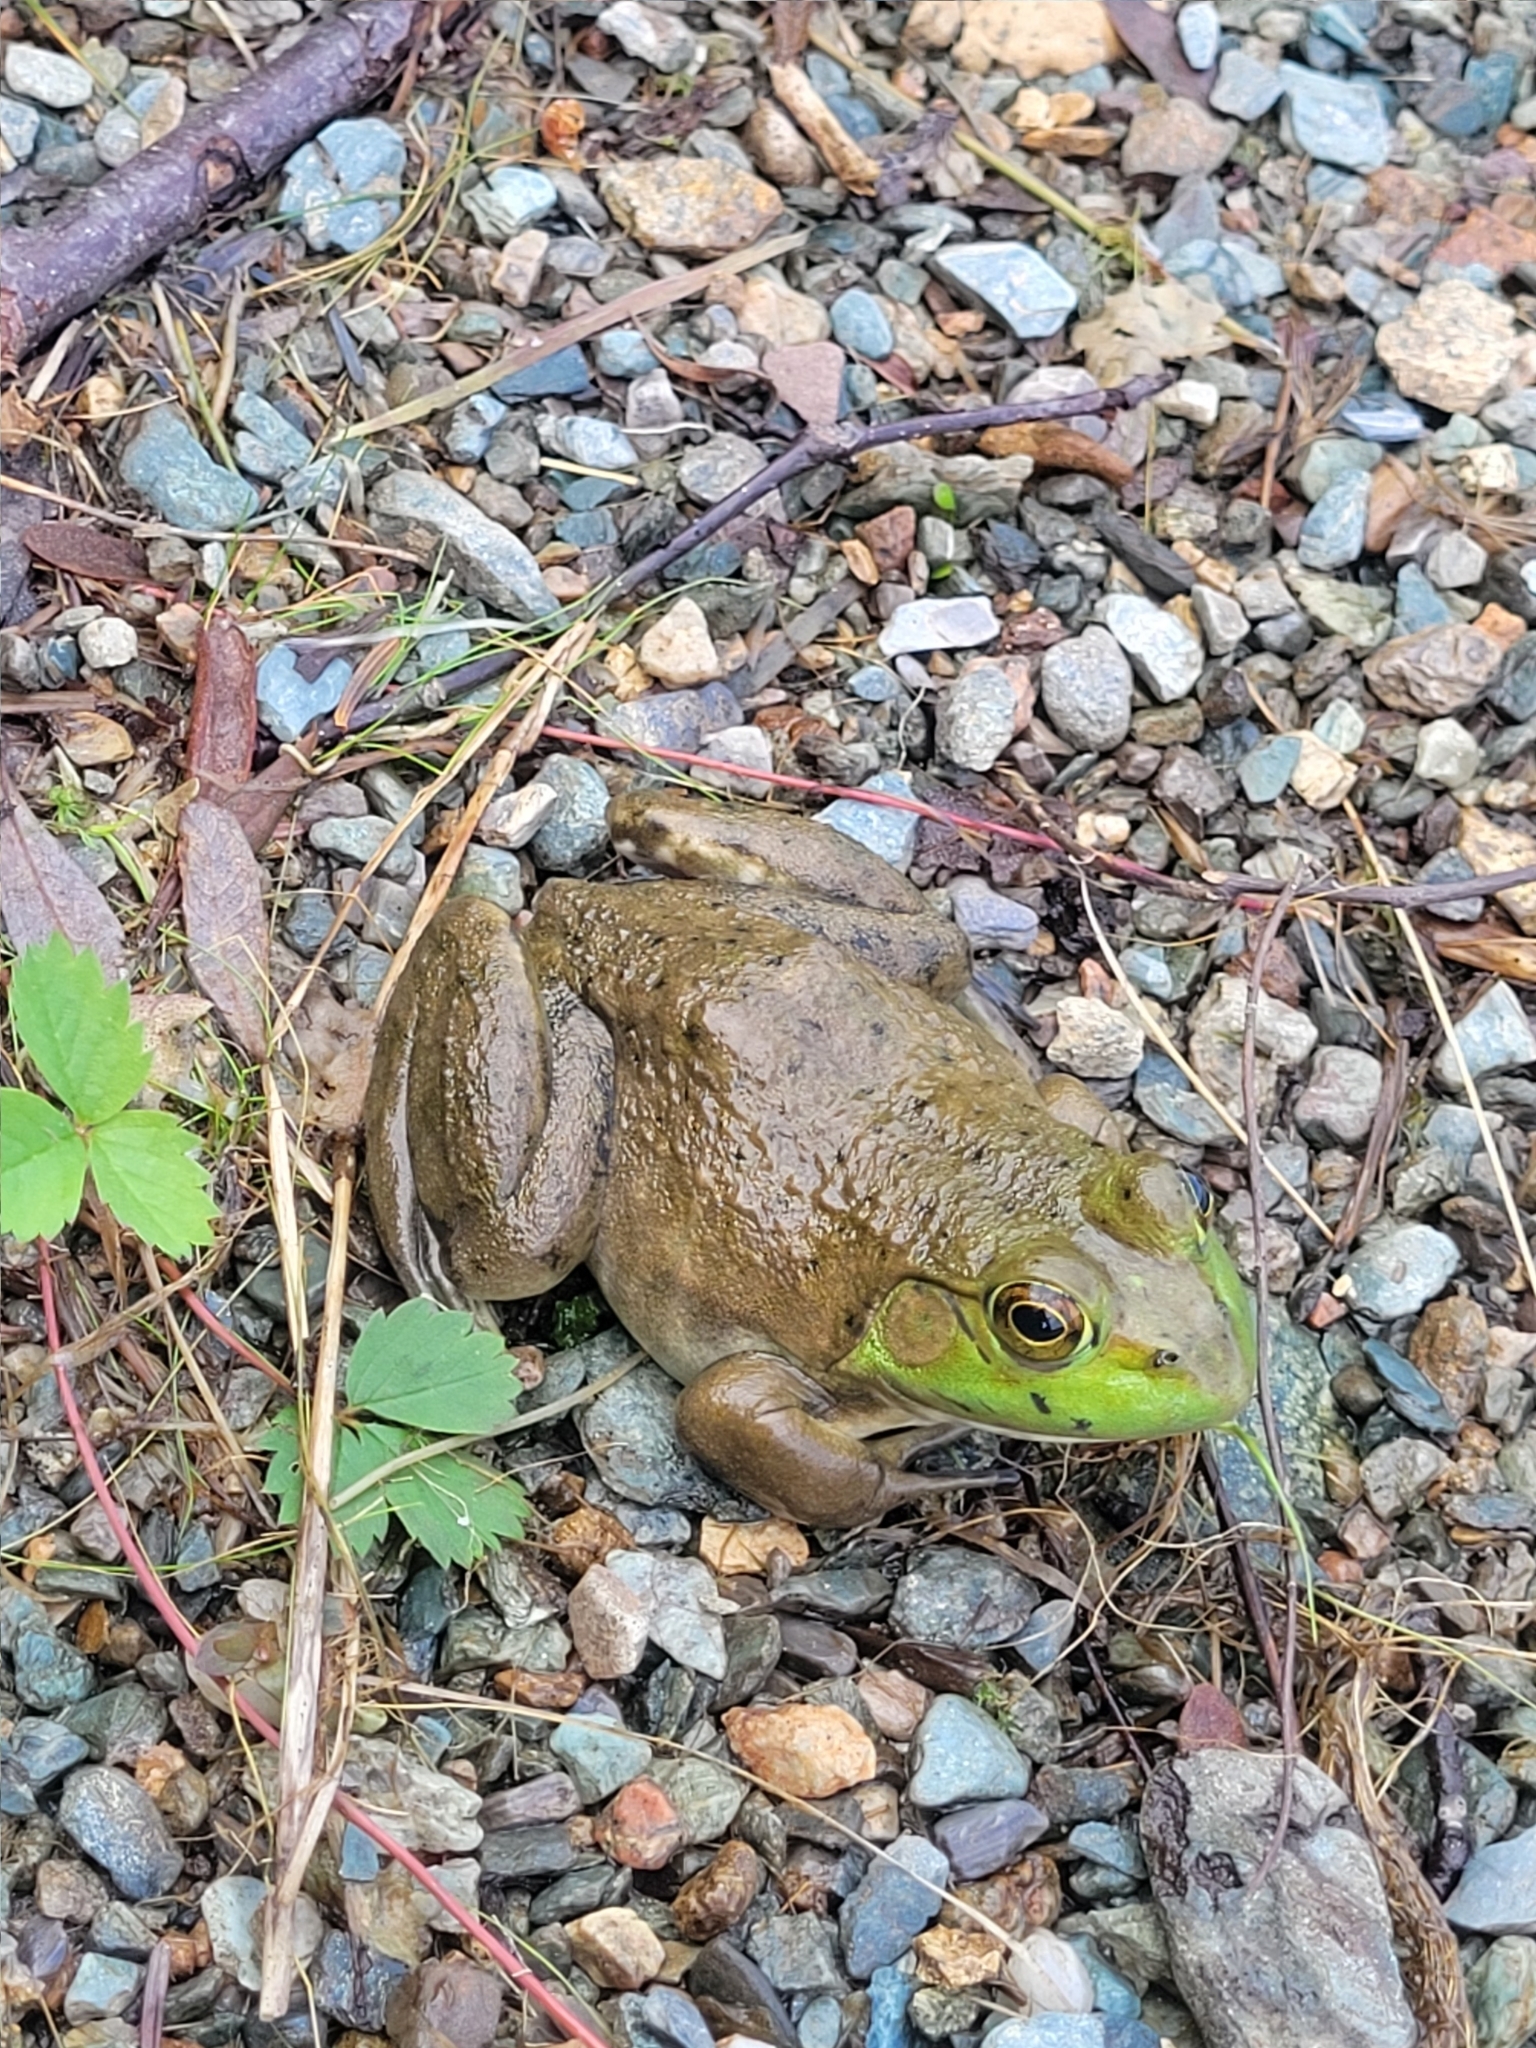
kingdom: Animalia
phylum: Chordata
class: Amphibia
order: Anura
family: Ranidae
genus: Lithobates
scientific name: Lithobates catesbeianus
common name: American bullfrog
